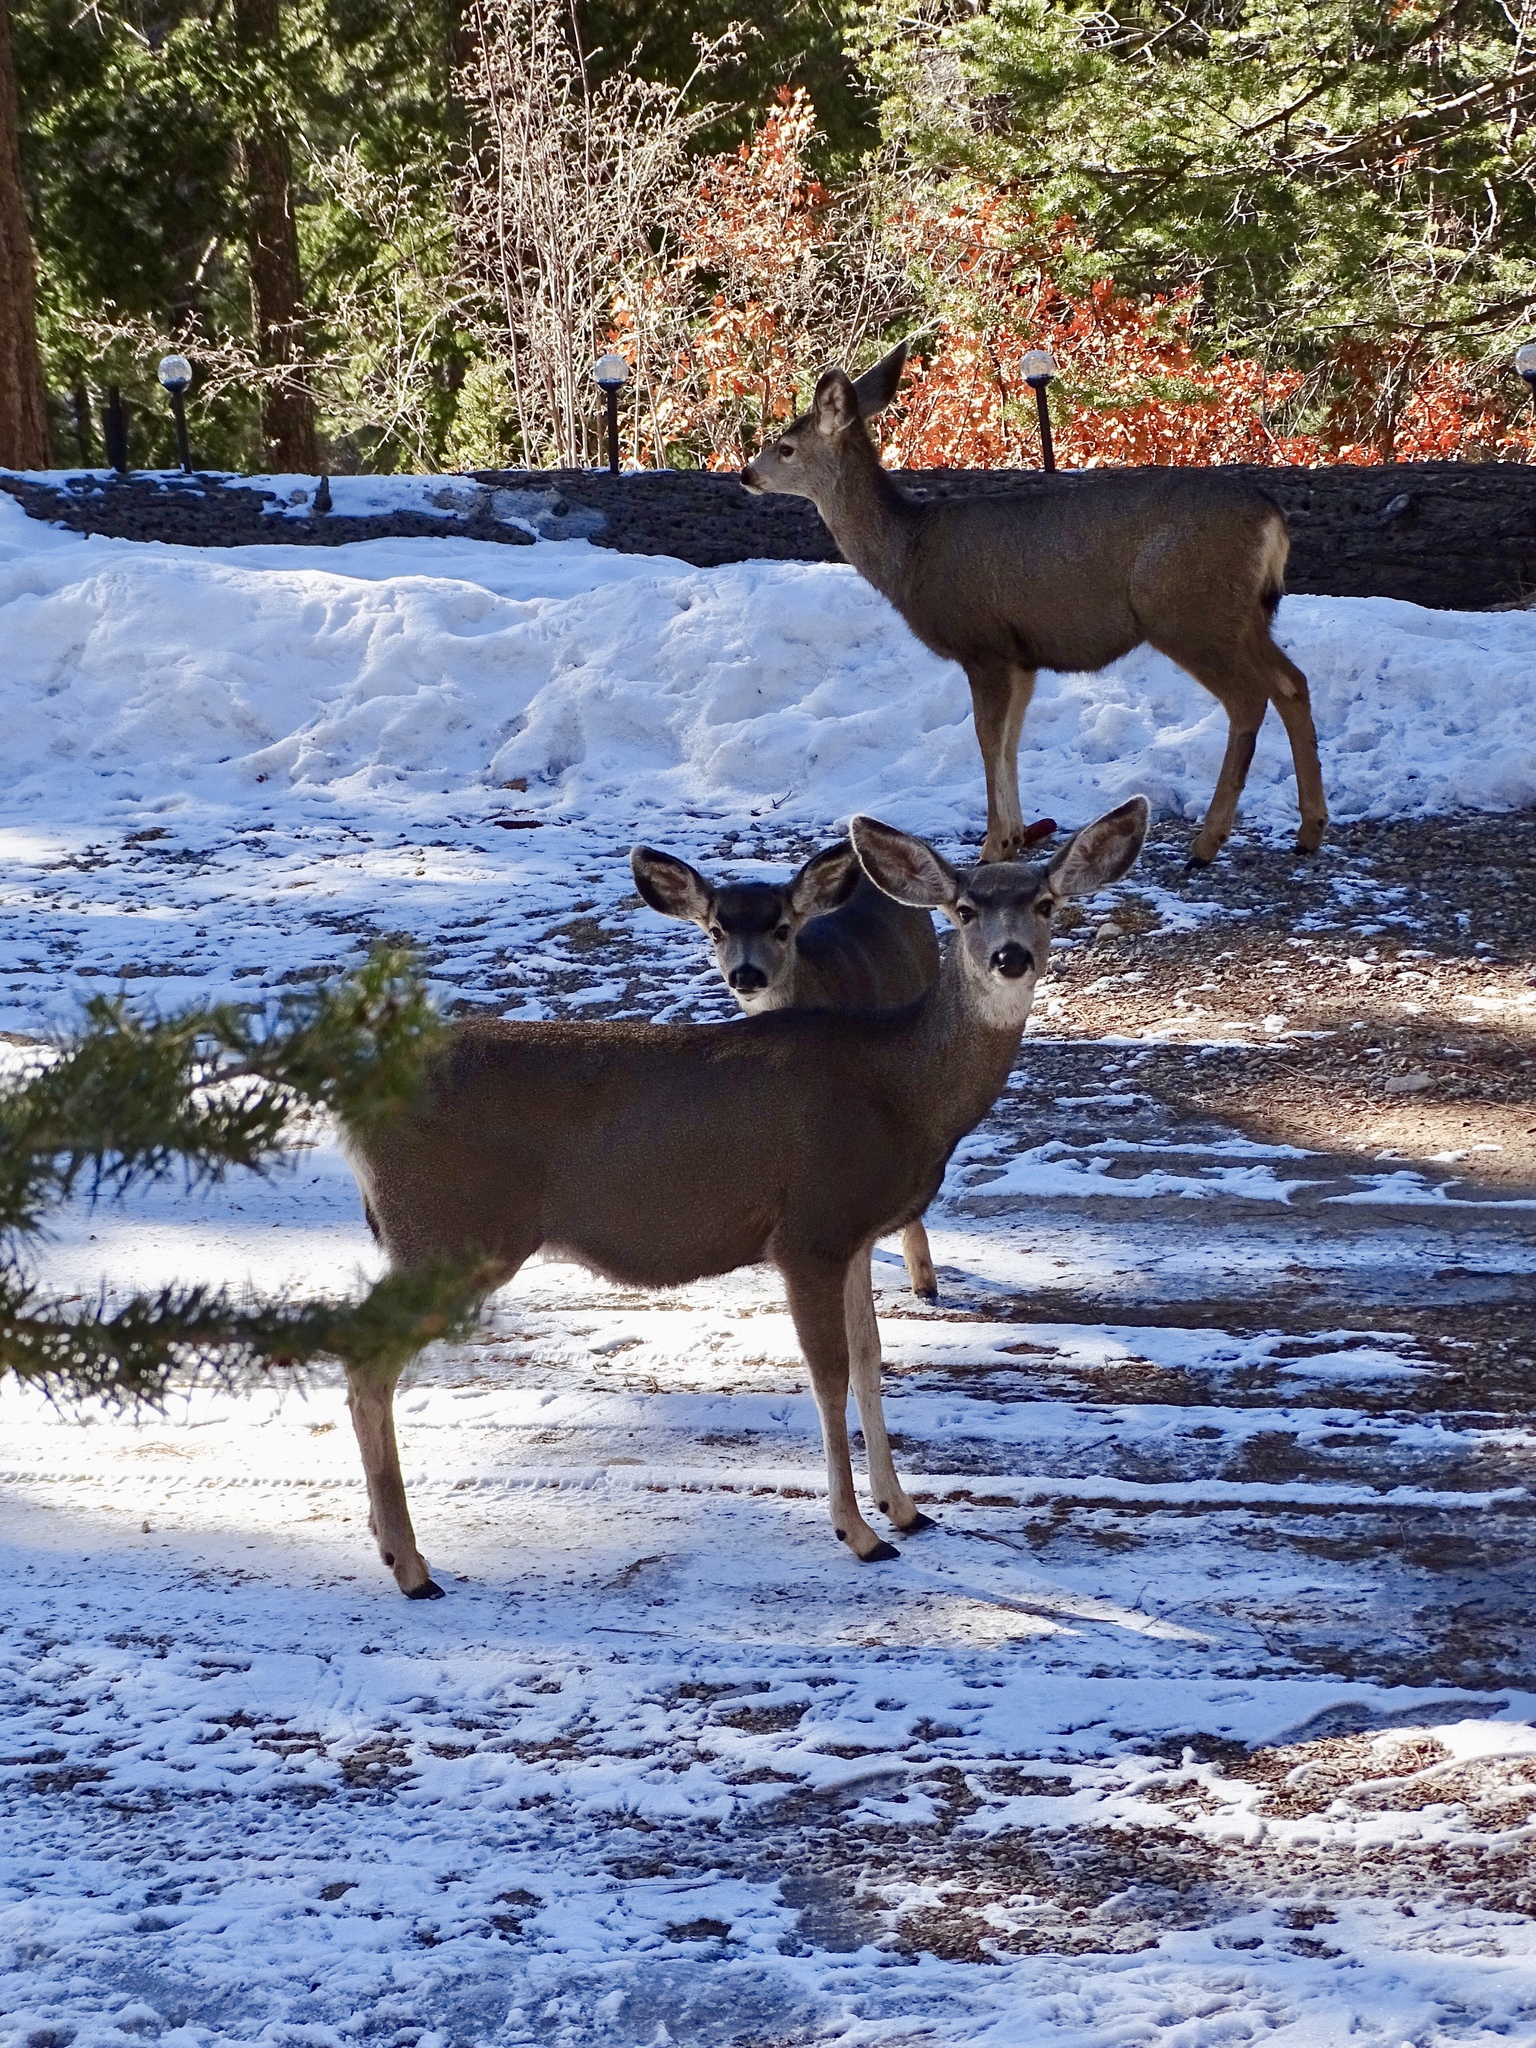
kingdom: Animalia
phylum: Chordata
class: Mammalia
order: Artiodactyla
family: Cervidae
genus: Odocoileus
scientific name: Odocoileus hemionus
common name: Mule deer
